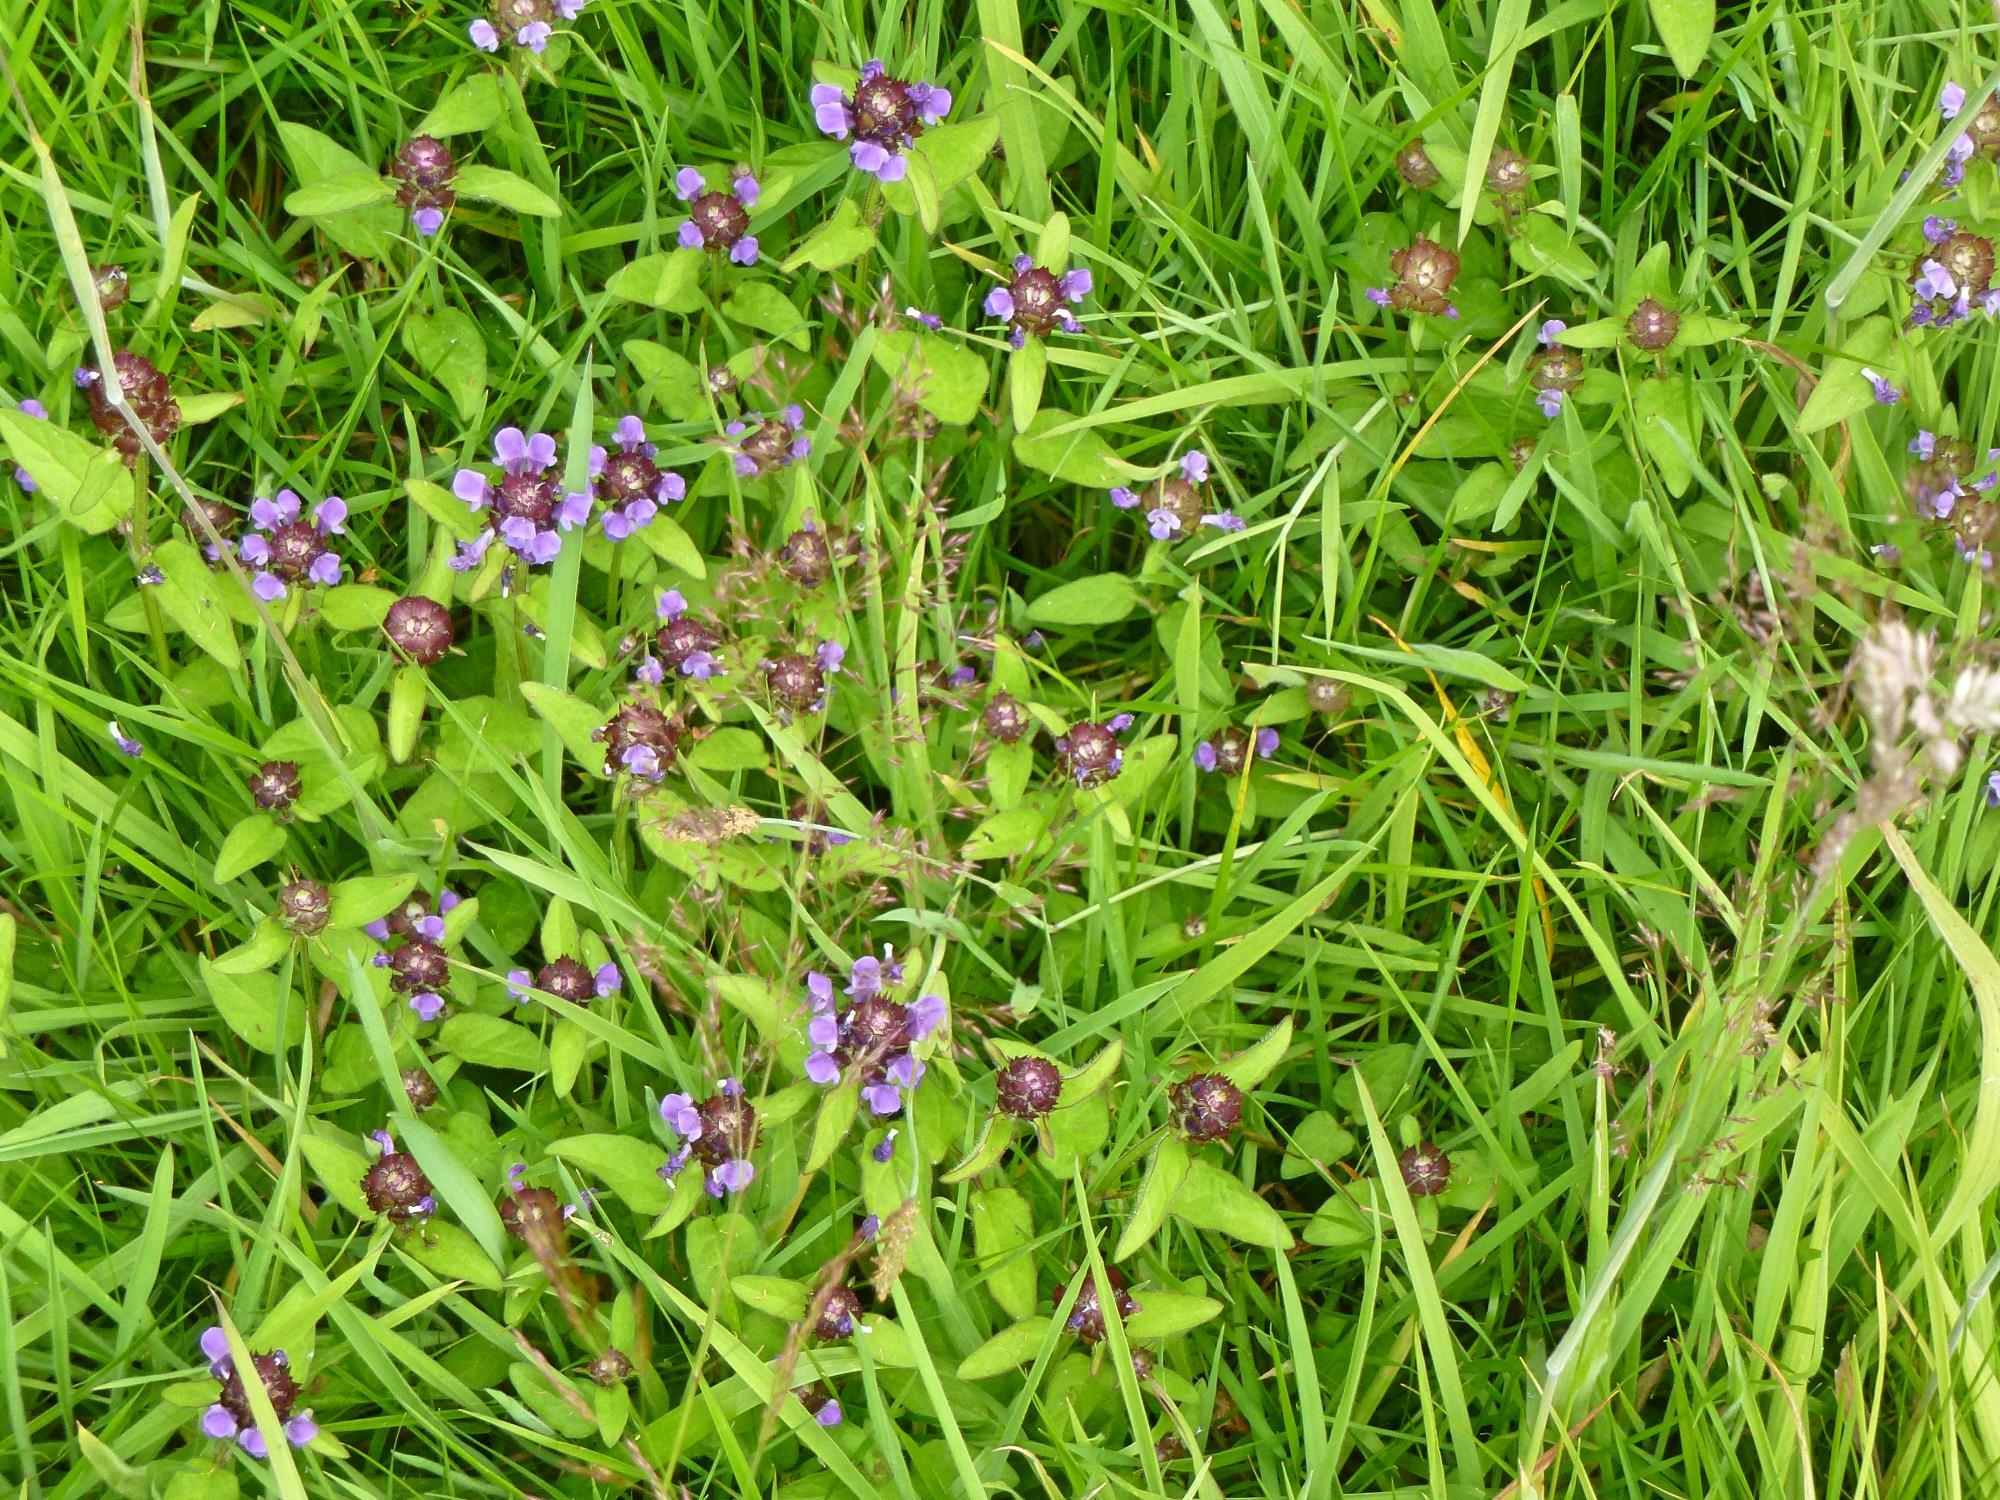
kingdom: Plantae
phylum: Tracheophyta
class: Magnoliopsida
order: Lamiales
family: Lamiaceae
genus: Prunella
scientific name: Prunella vulgaris
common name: Heal-all
